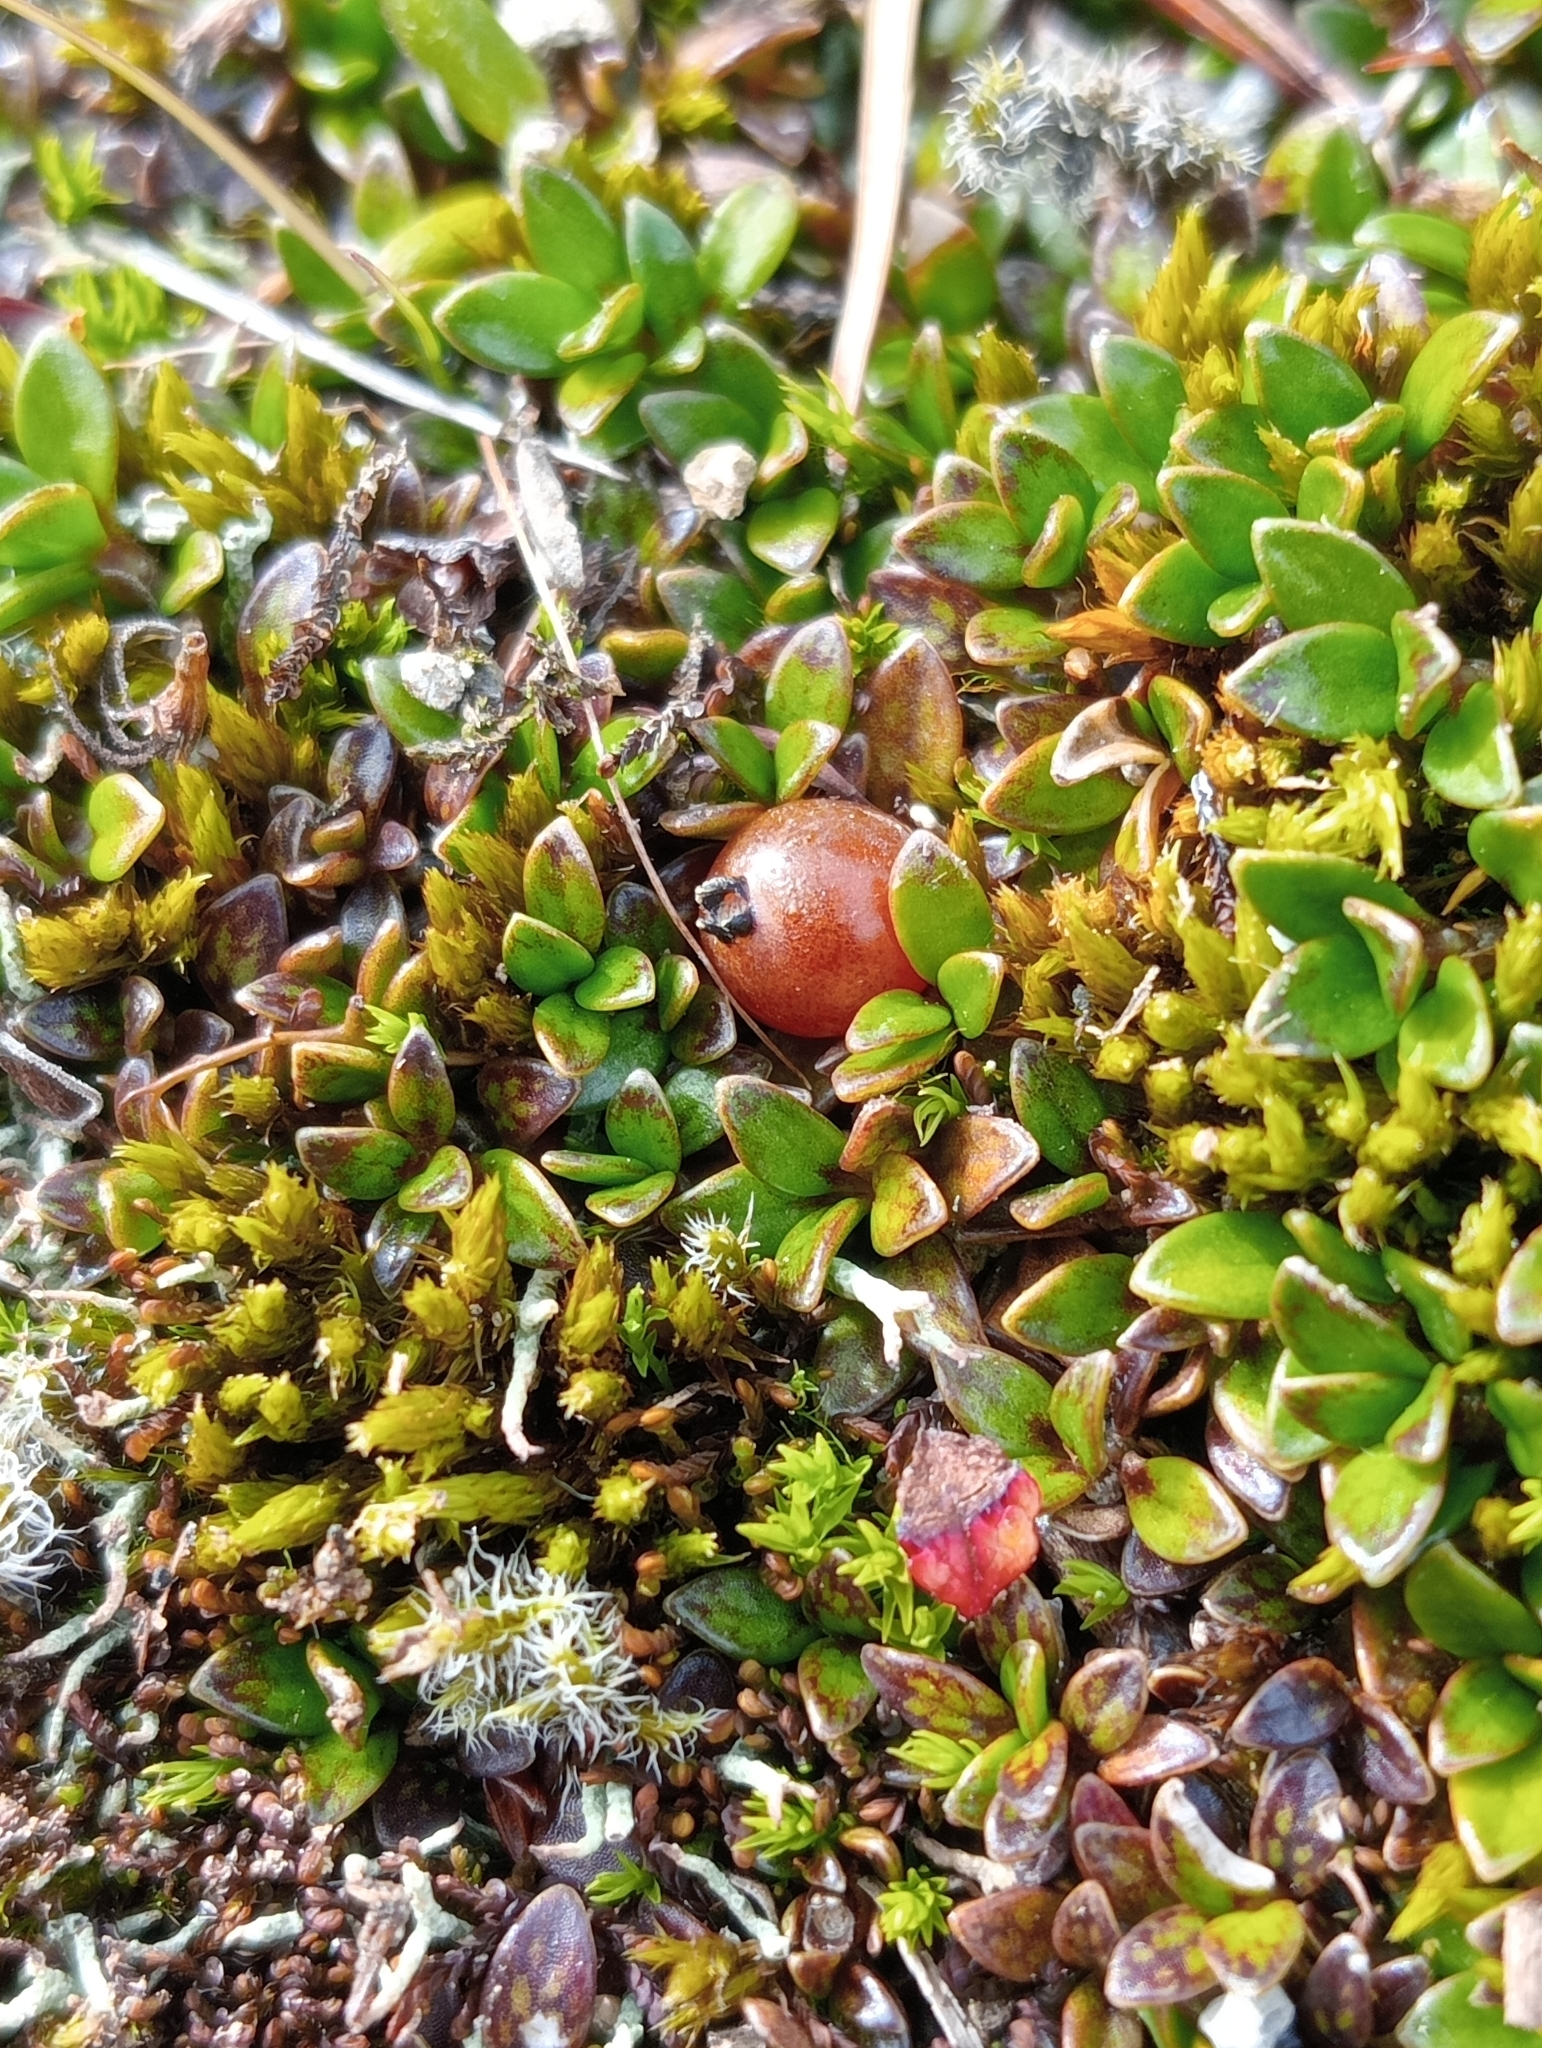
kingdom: Plantae
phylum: Tracheophyta
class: Magnoliopsida
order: Gentianales
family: Rubiaceae
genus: Coprosma
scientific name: Coprosma perpusilla
